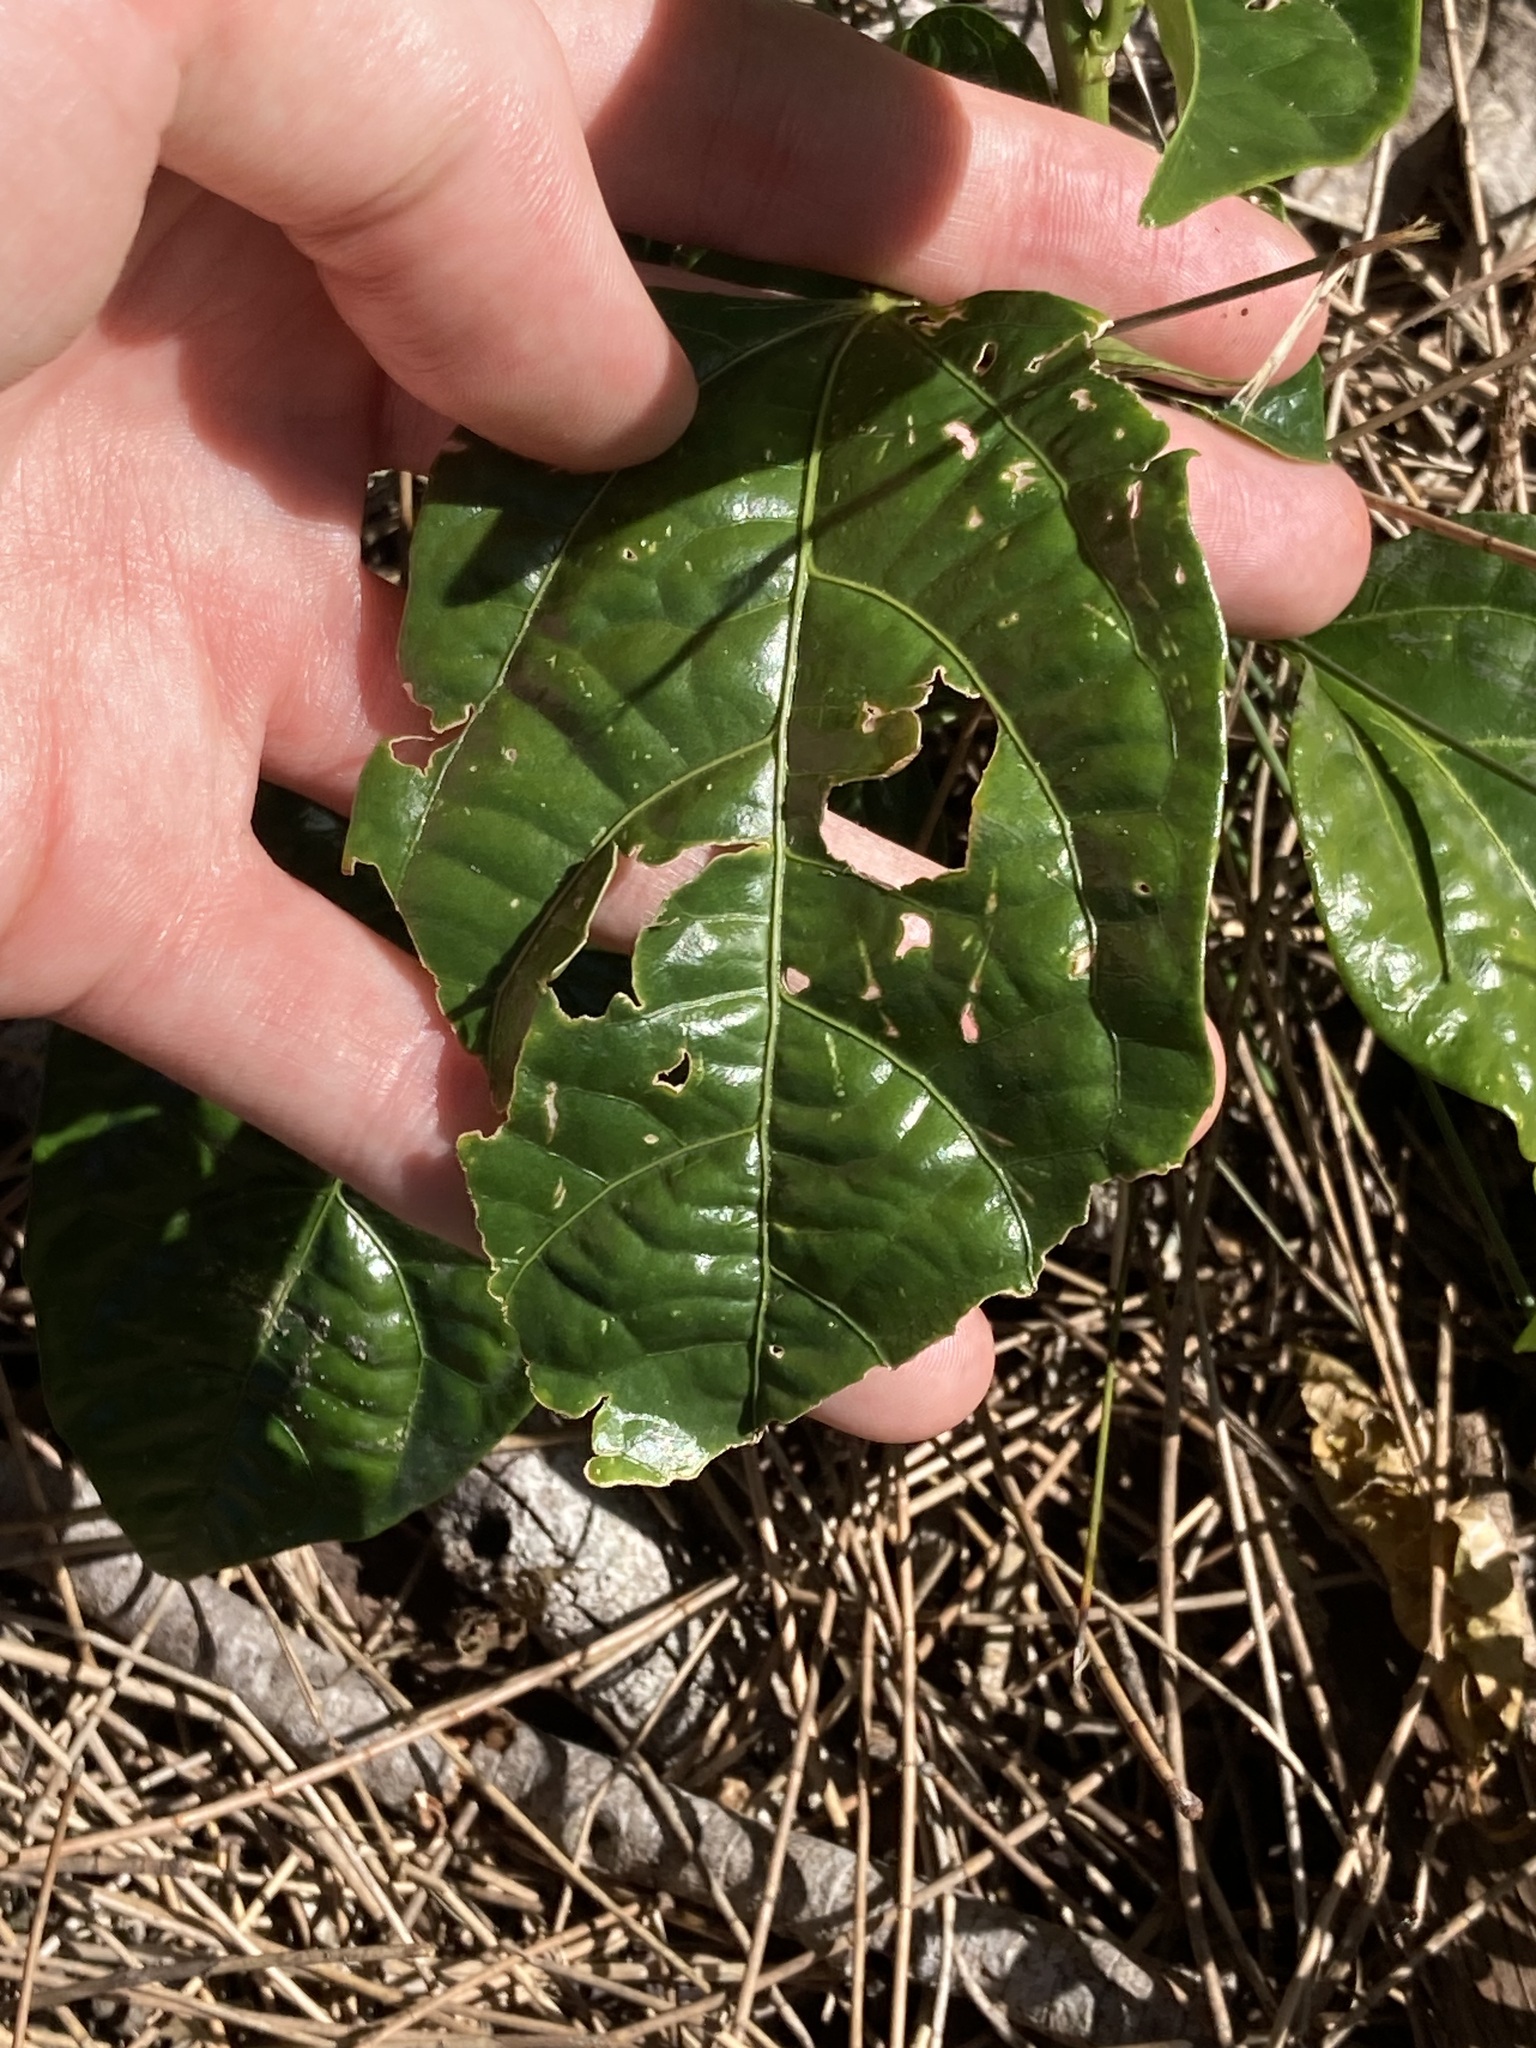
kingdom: Plantae
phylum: Tracheophyta
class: Magnoliopsida
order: Malpighiales
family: Passifloraceae
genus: Passiflora
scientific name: Passiflora edulis
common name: Purple granadilla
